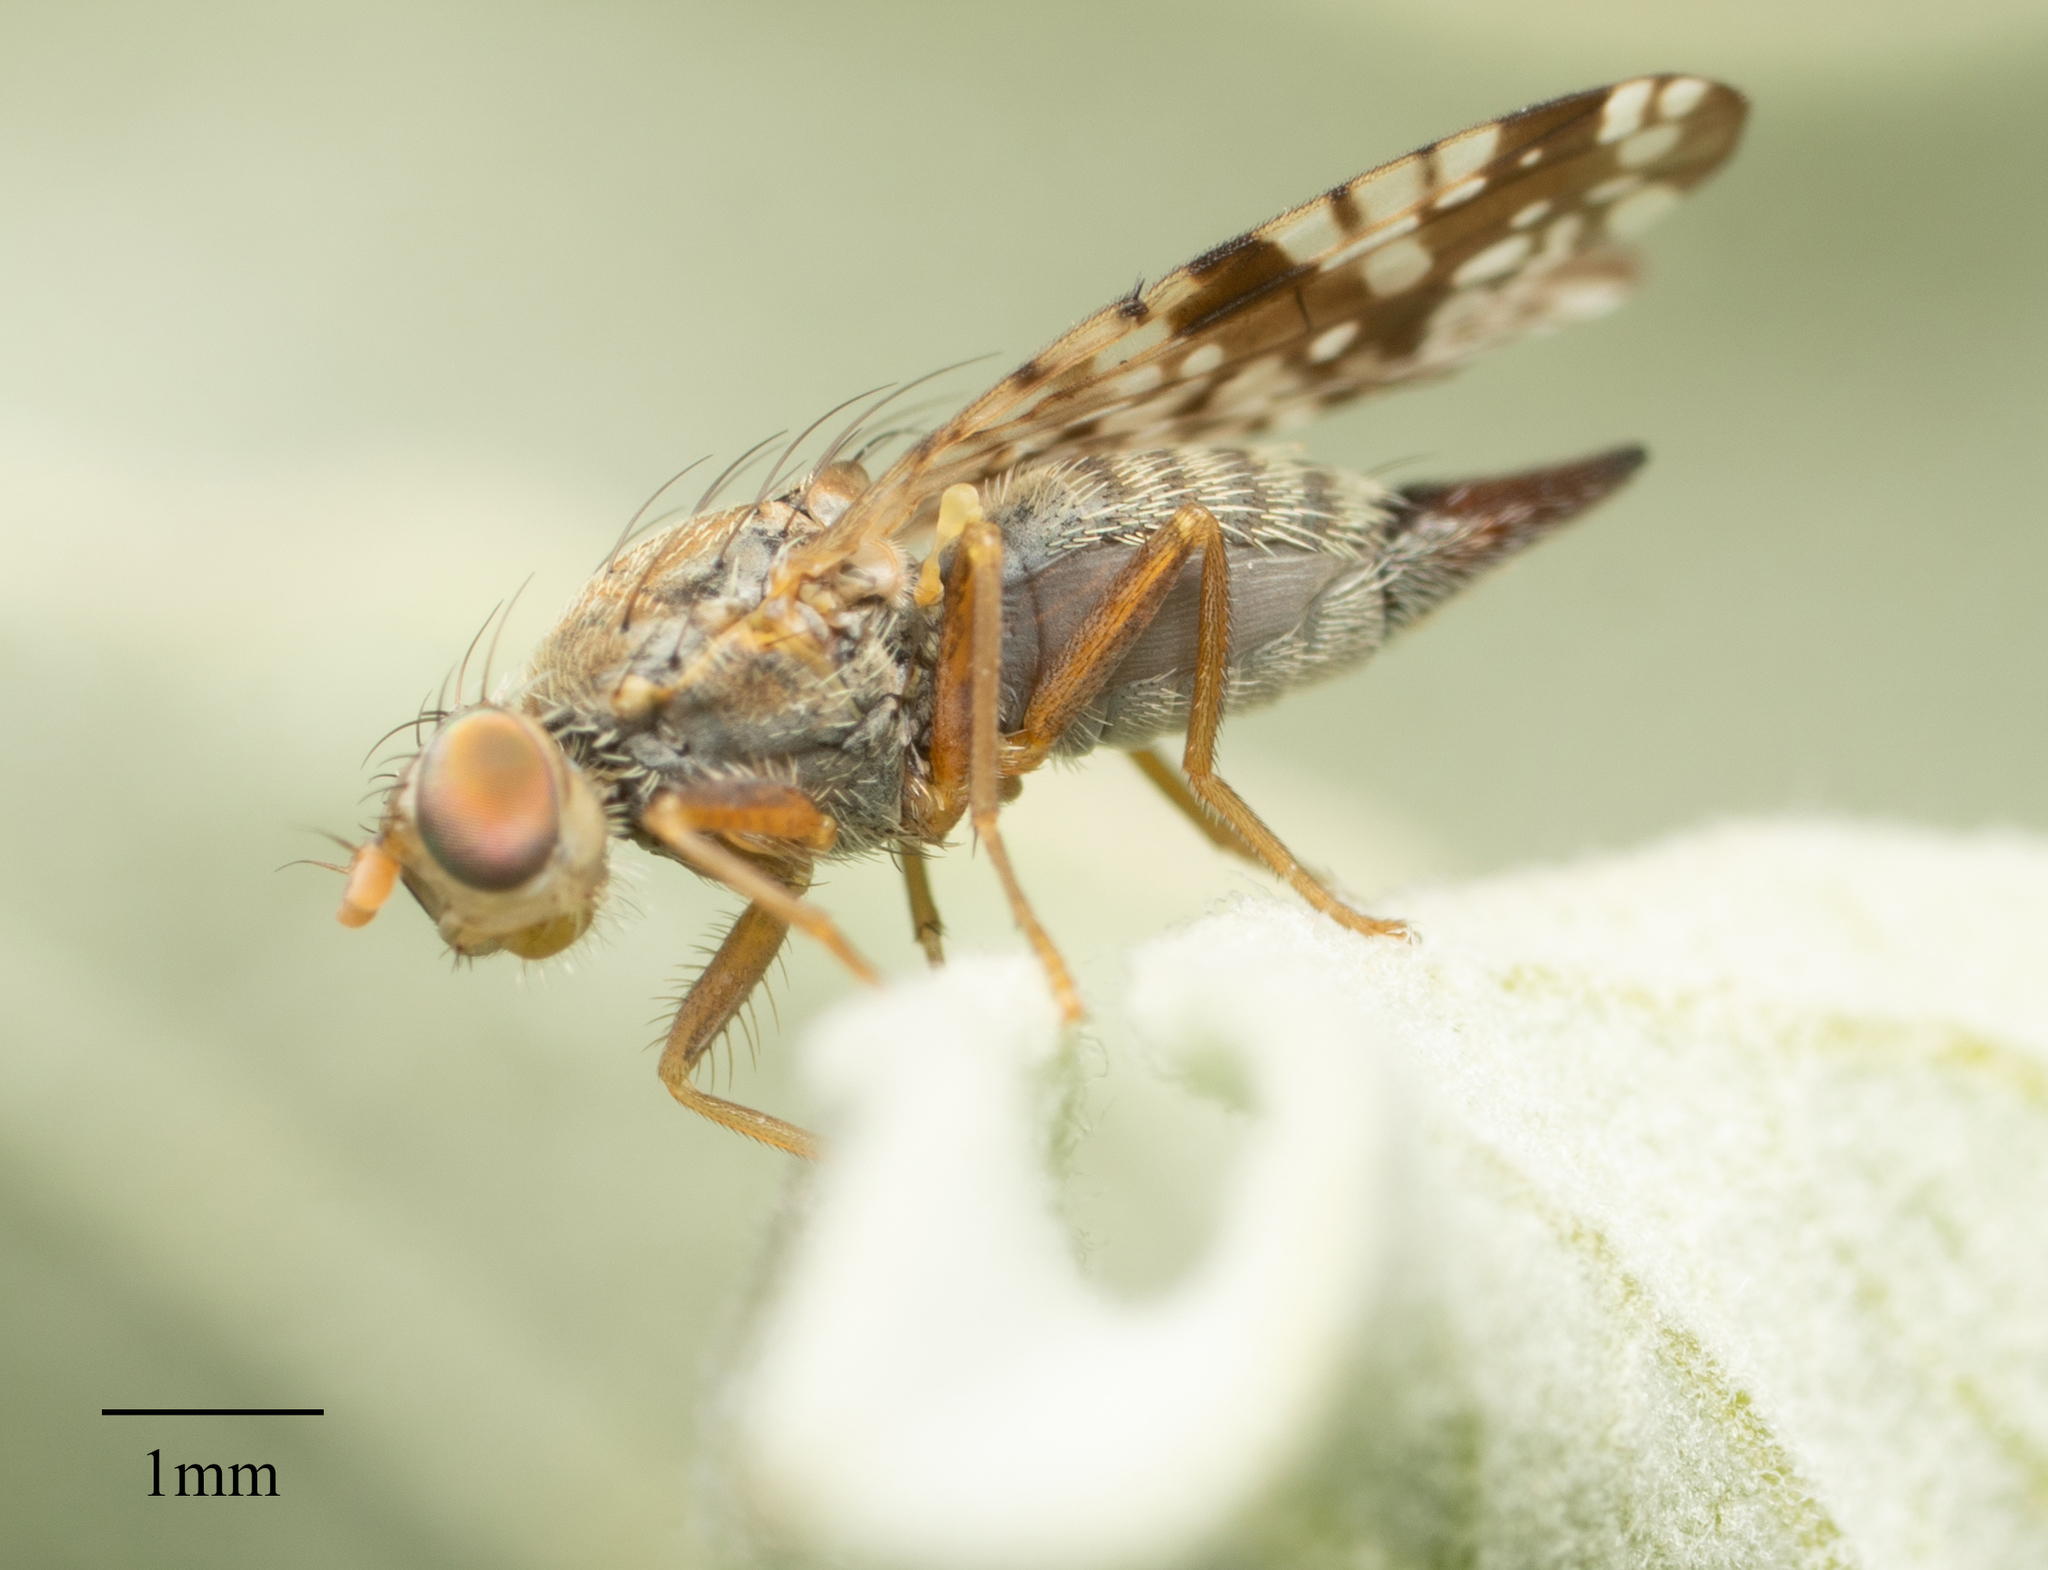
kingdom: Animalia
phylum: Arthropoda
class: Insecta
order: Diptera
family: Tephritidae
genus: Neotephritis
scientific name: Neotephritis finalis
